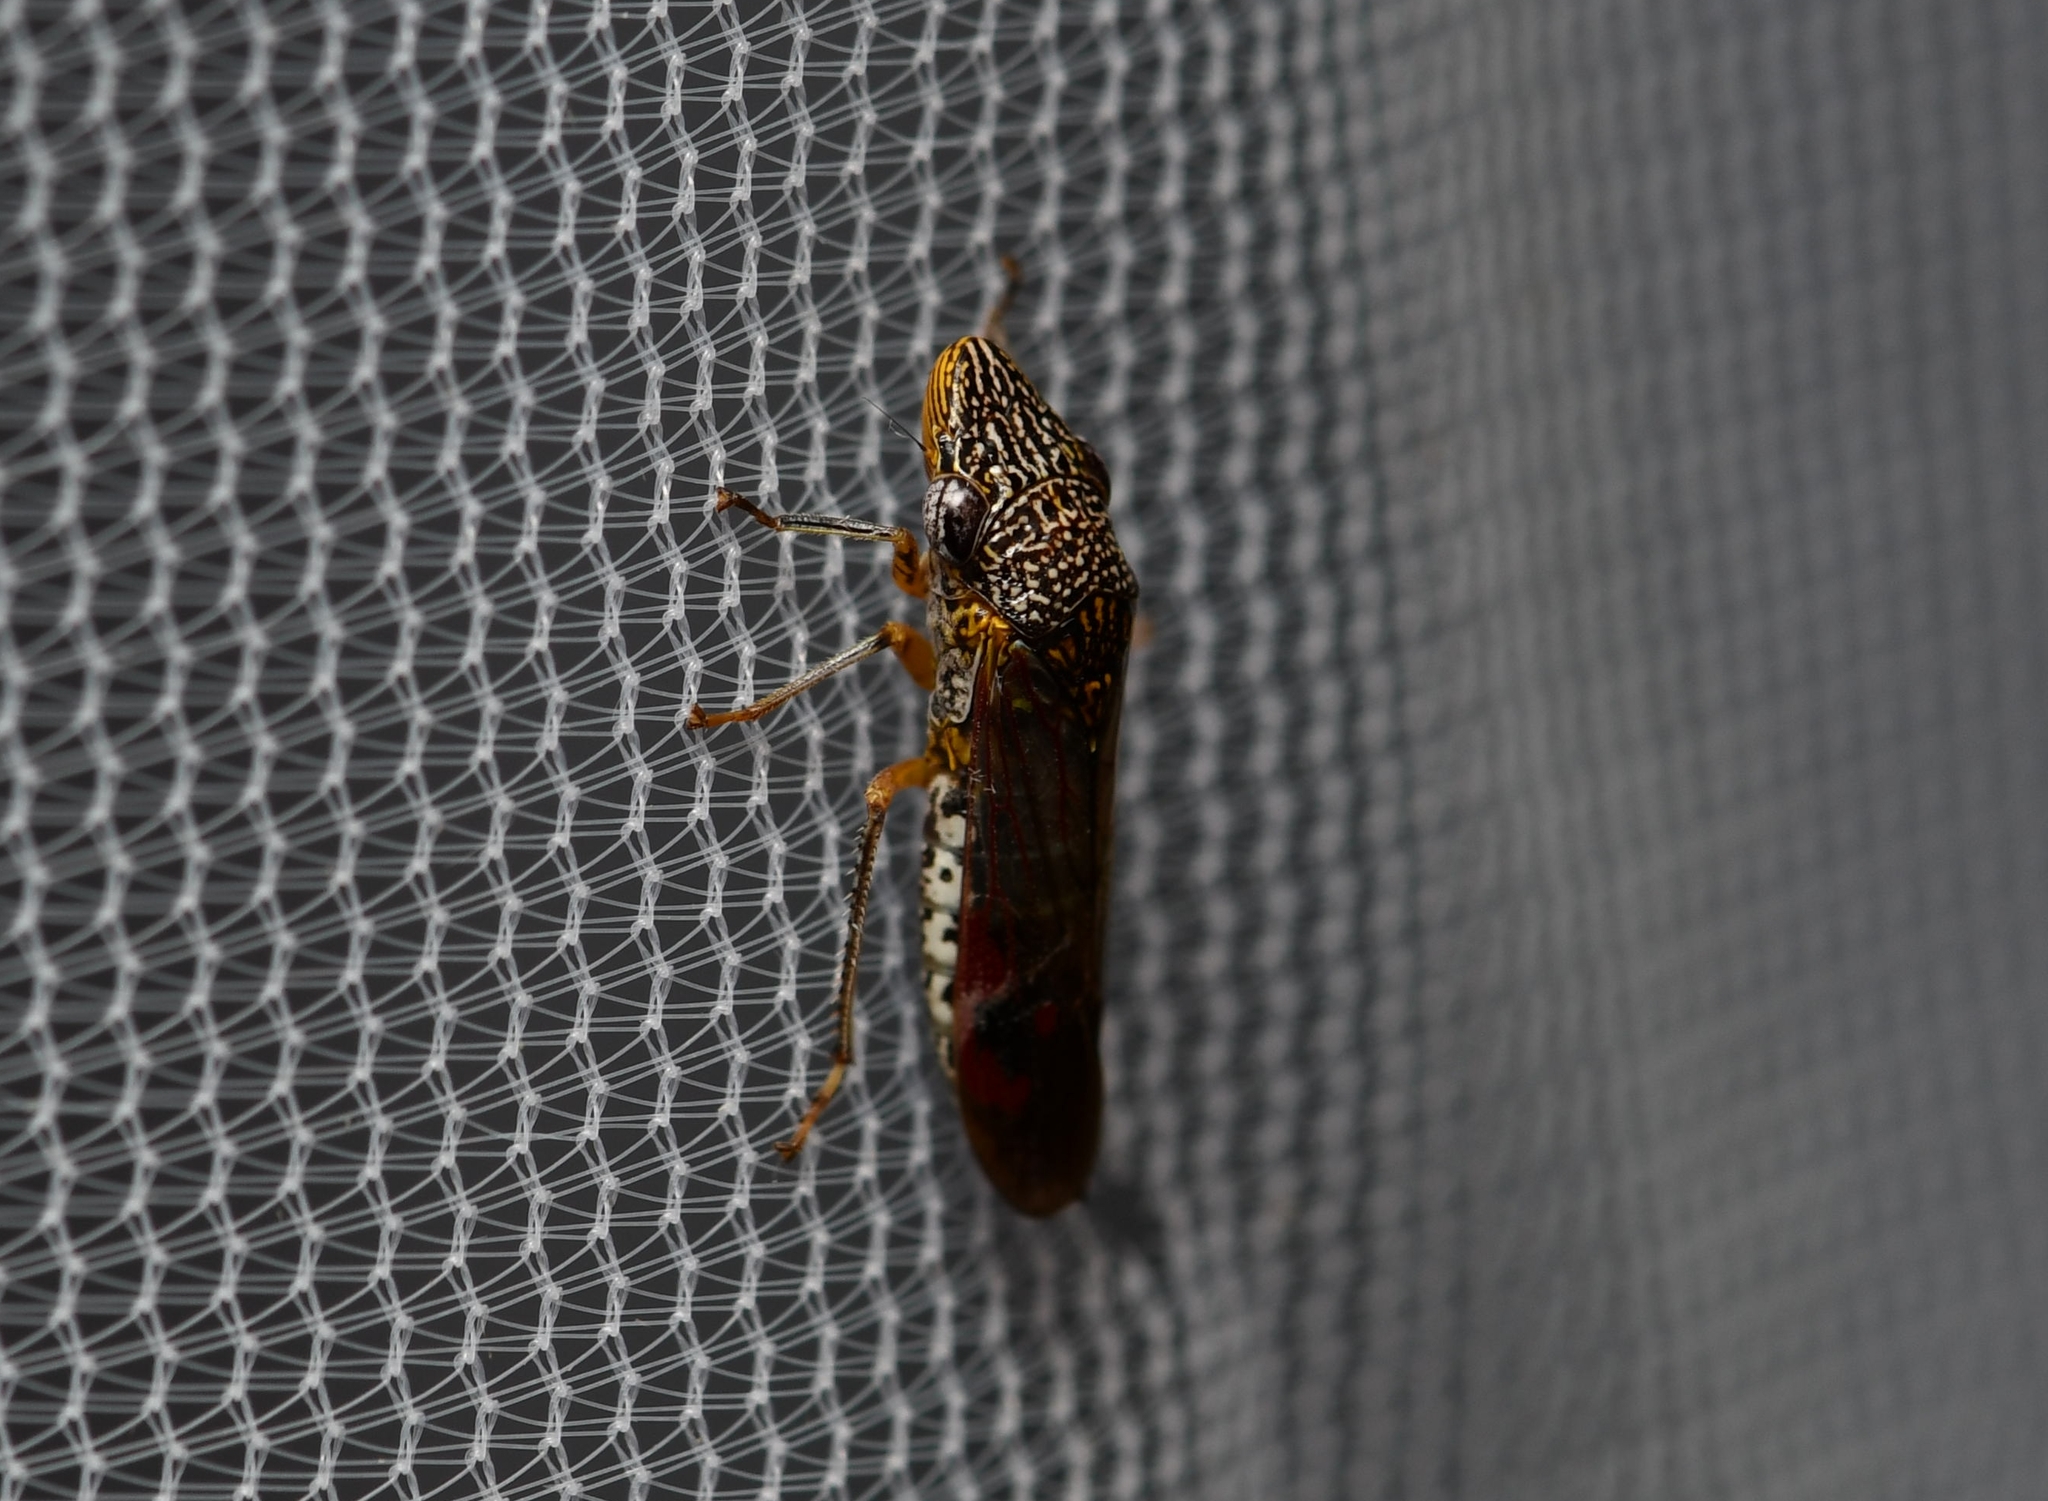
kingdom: Animalia
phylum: Arthropoda
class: Insecta
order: Hemiptera
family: Cicadellidae
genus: Homalodisca
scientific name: Homalodisca liturata
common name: Lacertate sharpshooter
